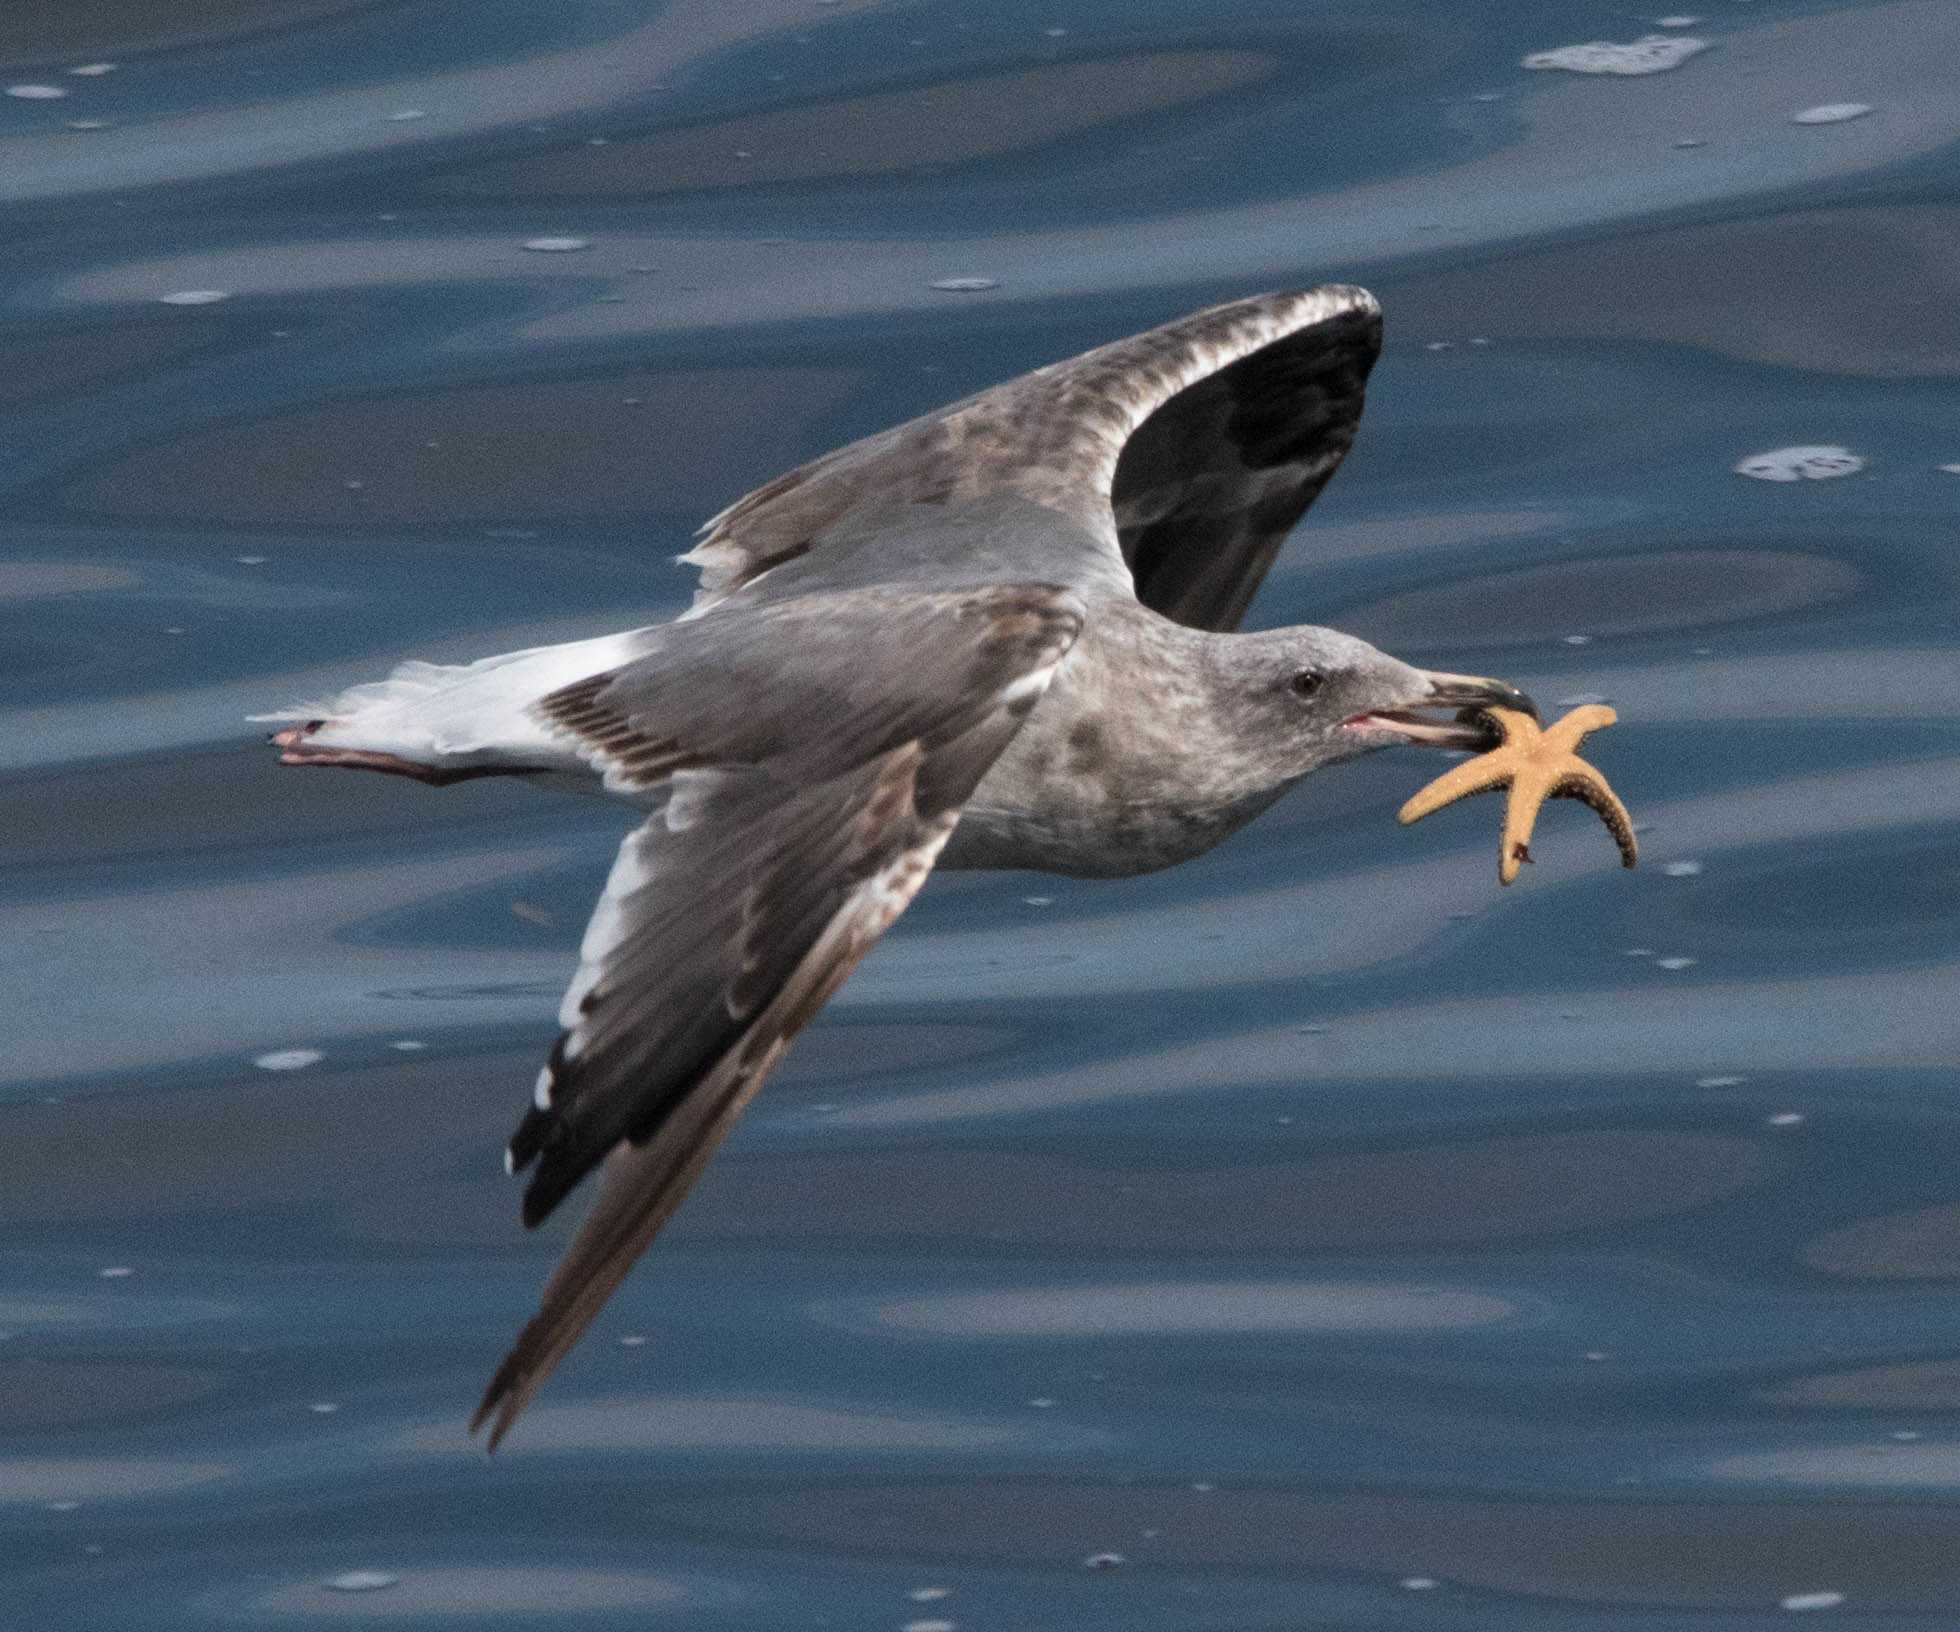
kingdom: Animalia
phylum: Chordata
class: Aves
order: Charadriiformes
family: Laridae
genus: Larus
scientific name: Larus occidentalis
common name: Western gull
